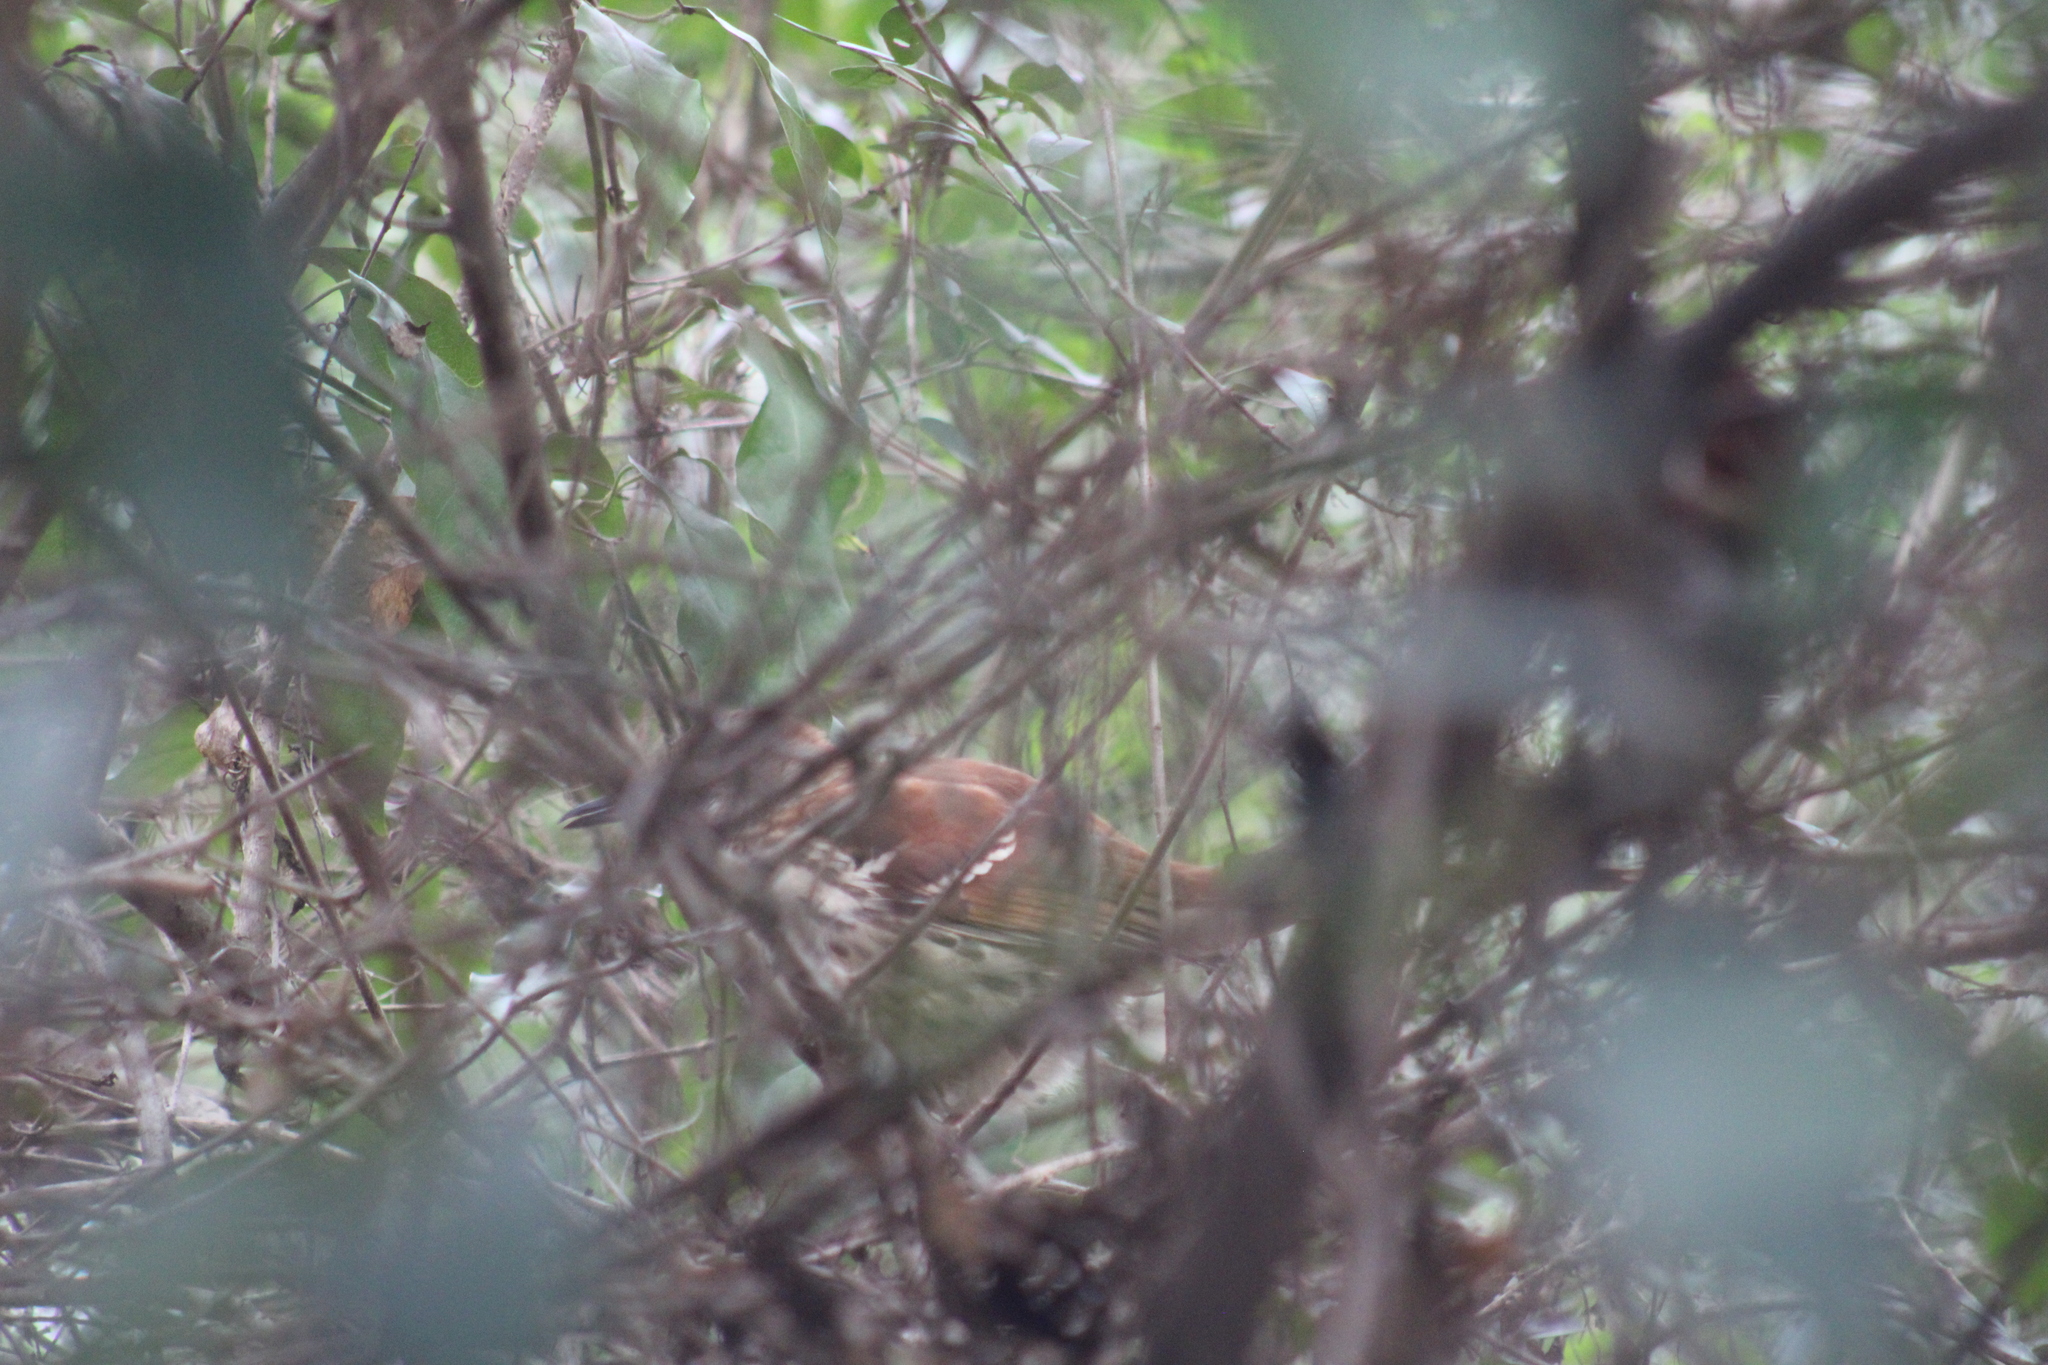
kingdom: Animalia
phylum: Chordata
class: Aves
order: Passeriformes
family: Mimidae
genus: Toxostoma
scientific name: Toxostoma rufum
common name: Brown thrasher
